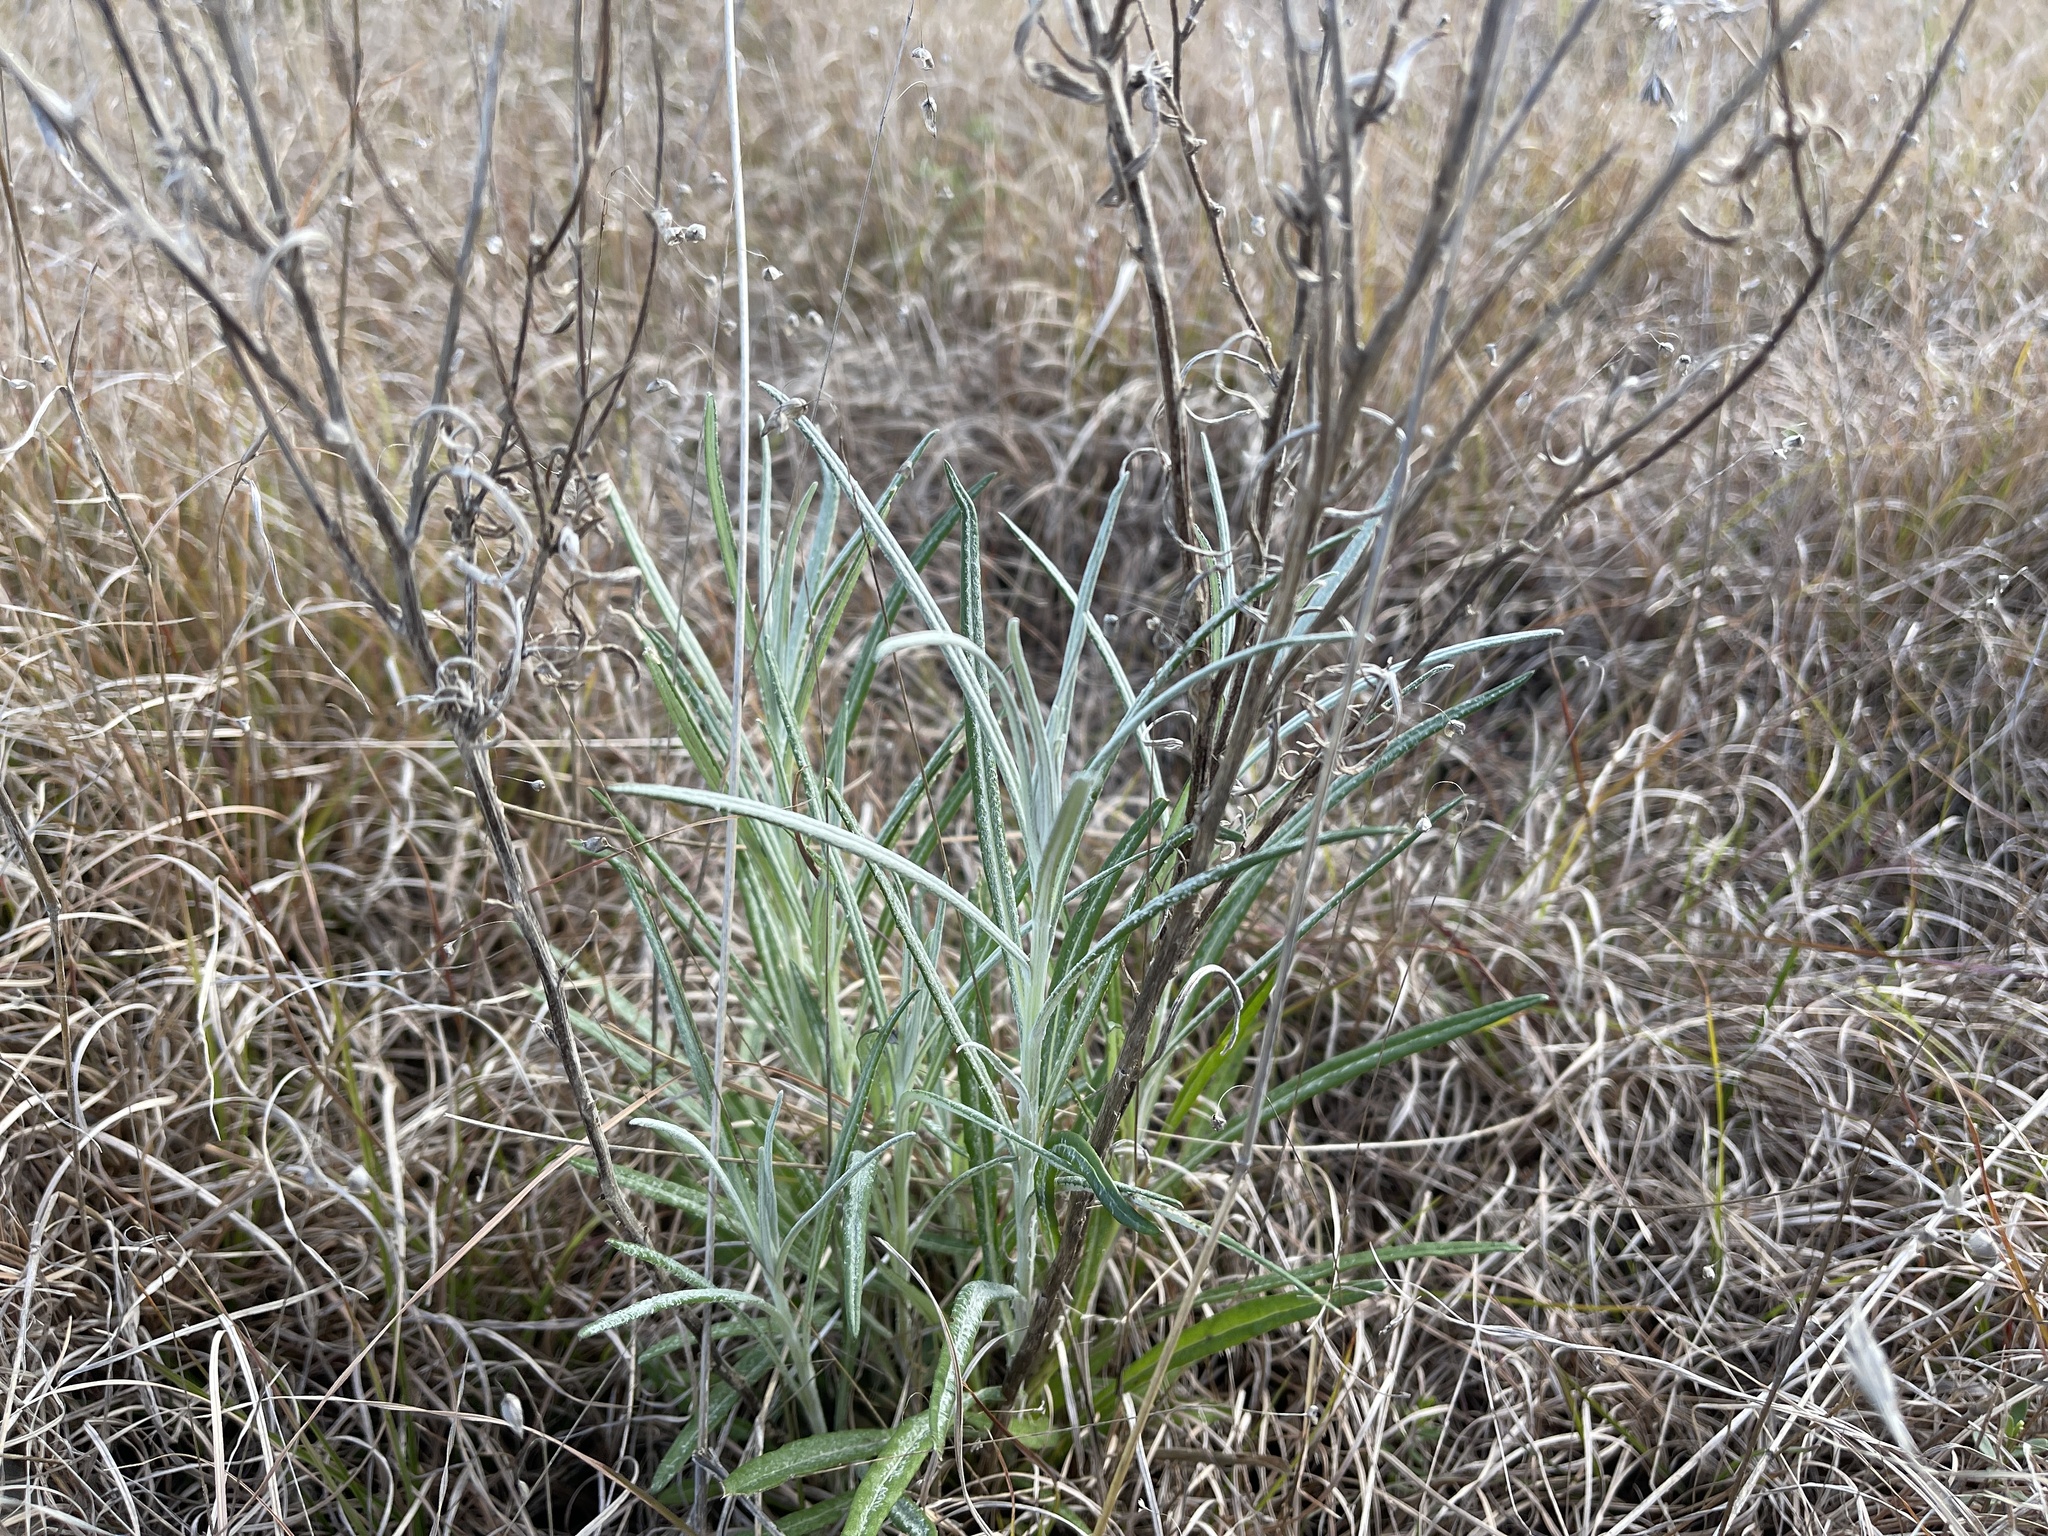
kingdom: Plantae
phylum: Tracheophyta
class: Magnoliopsida
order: Asterales
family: Asteraceae
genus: Senecio
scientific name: Senecio quadridentatus
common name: Cotton fireweed
